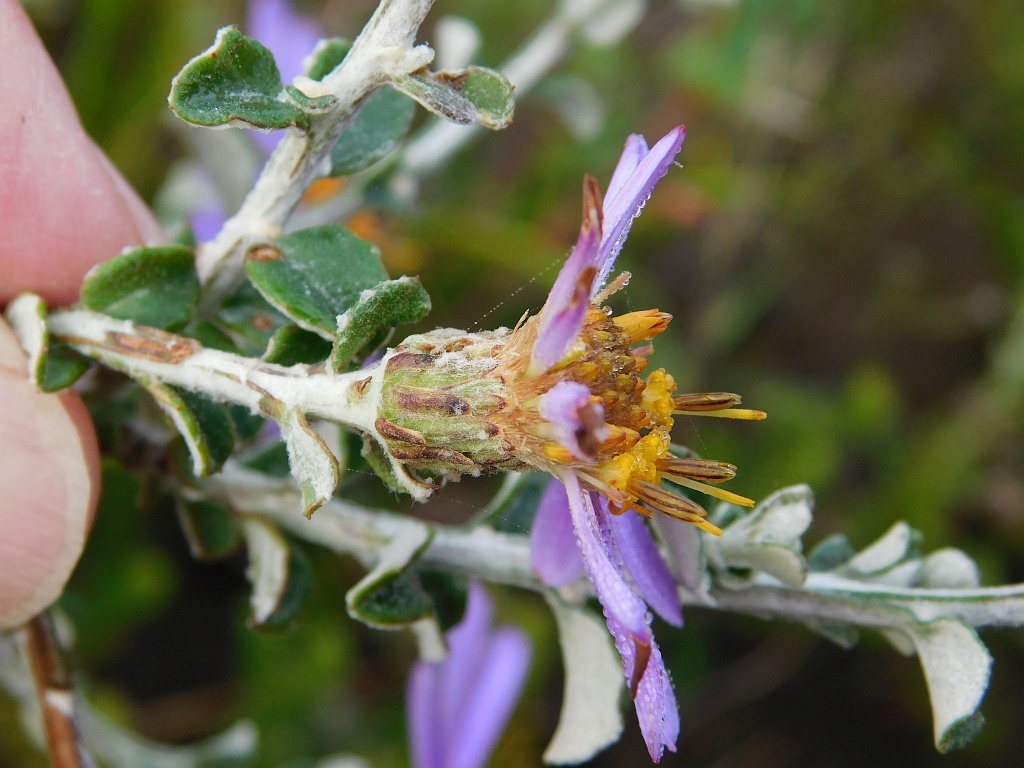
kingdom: Plantae
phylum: Tracheophyta
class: Magnoliopsida
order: Asterales
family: Asteraceae
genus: Printzia
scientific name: Printzia polifolia
